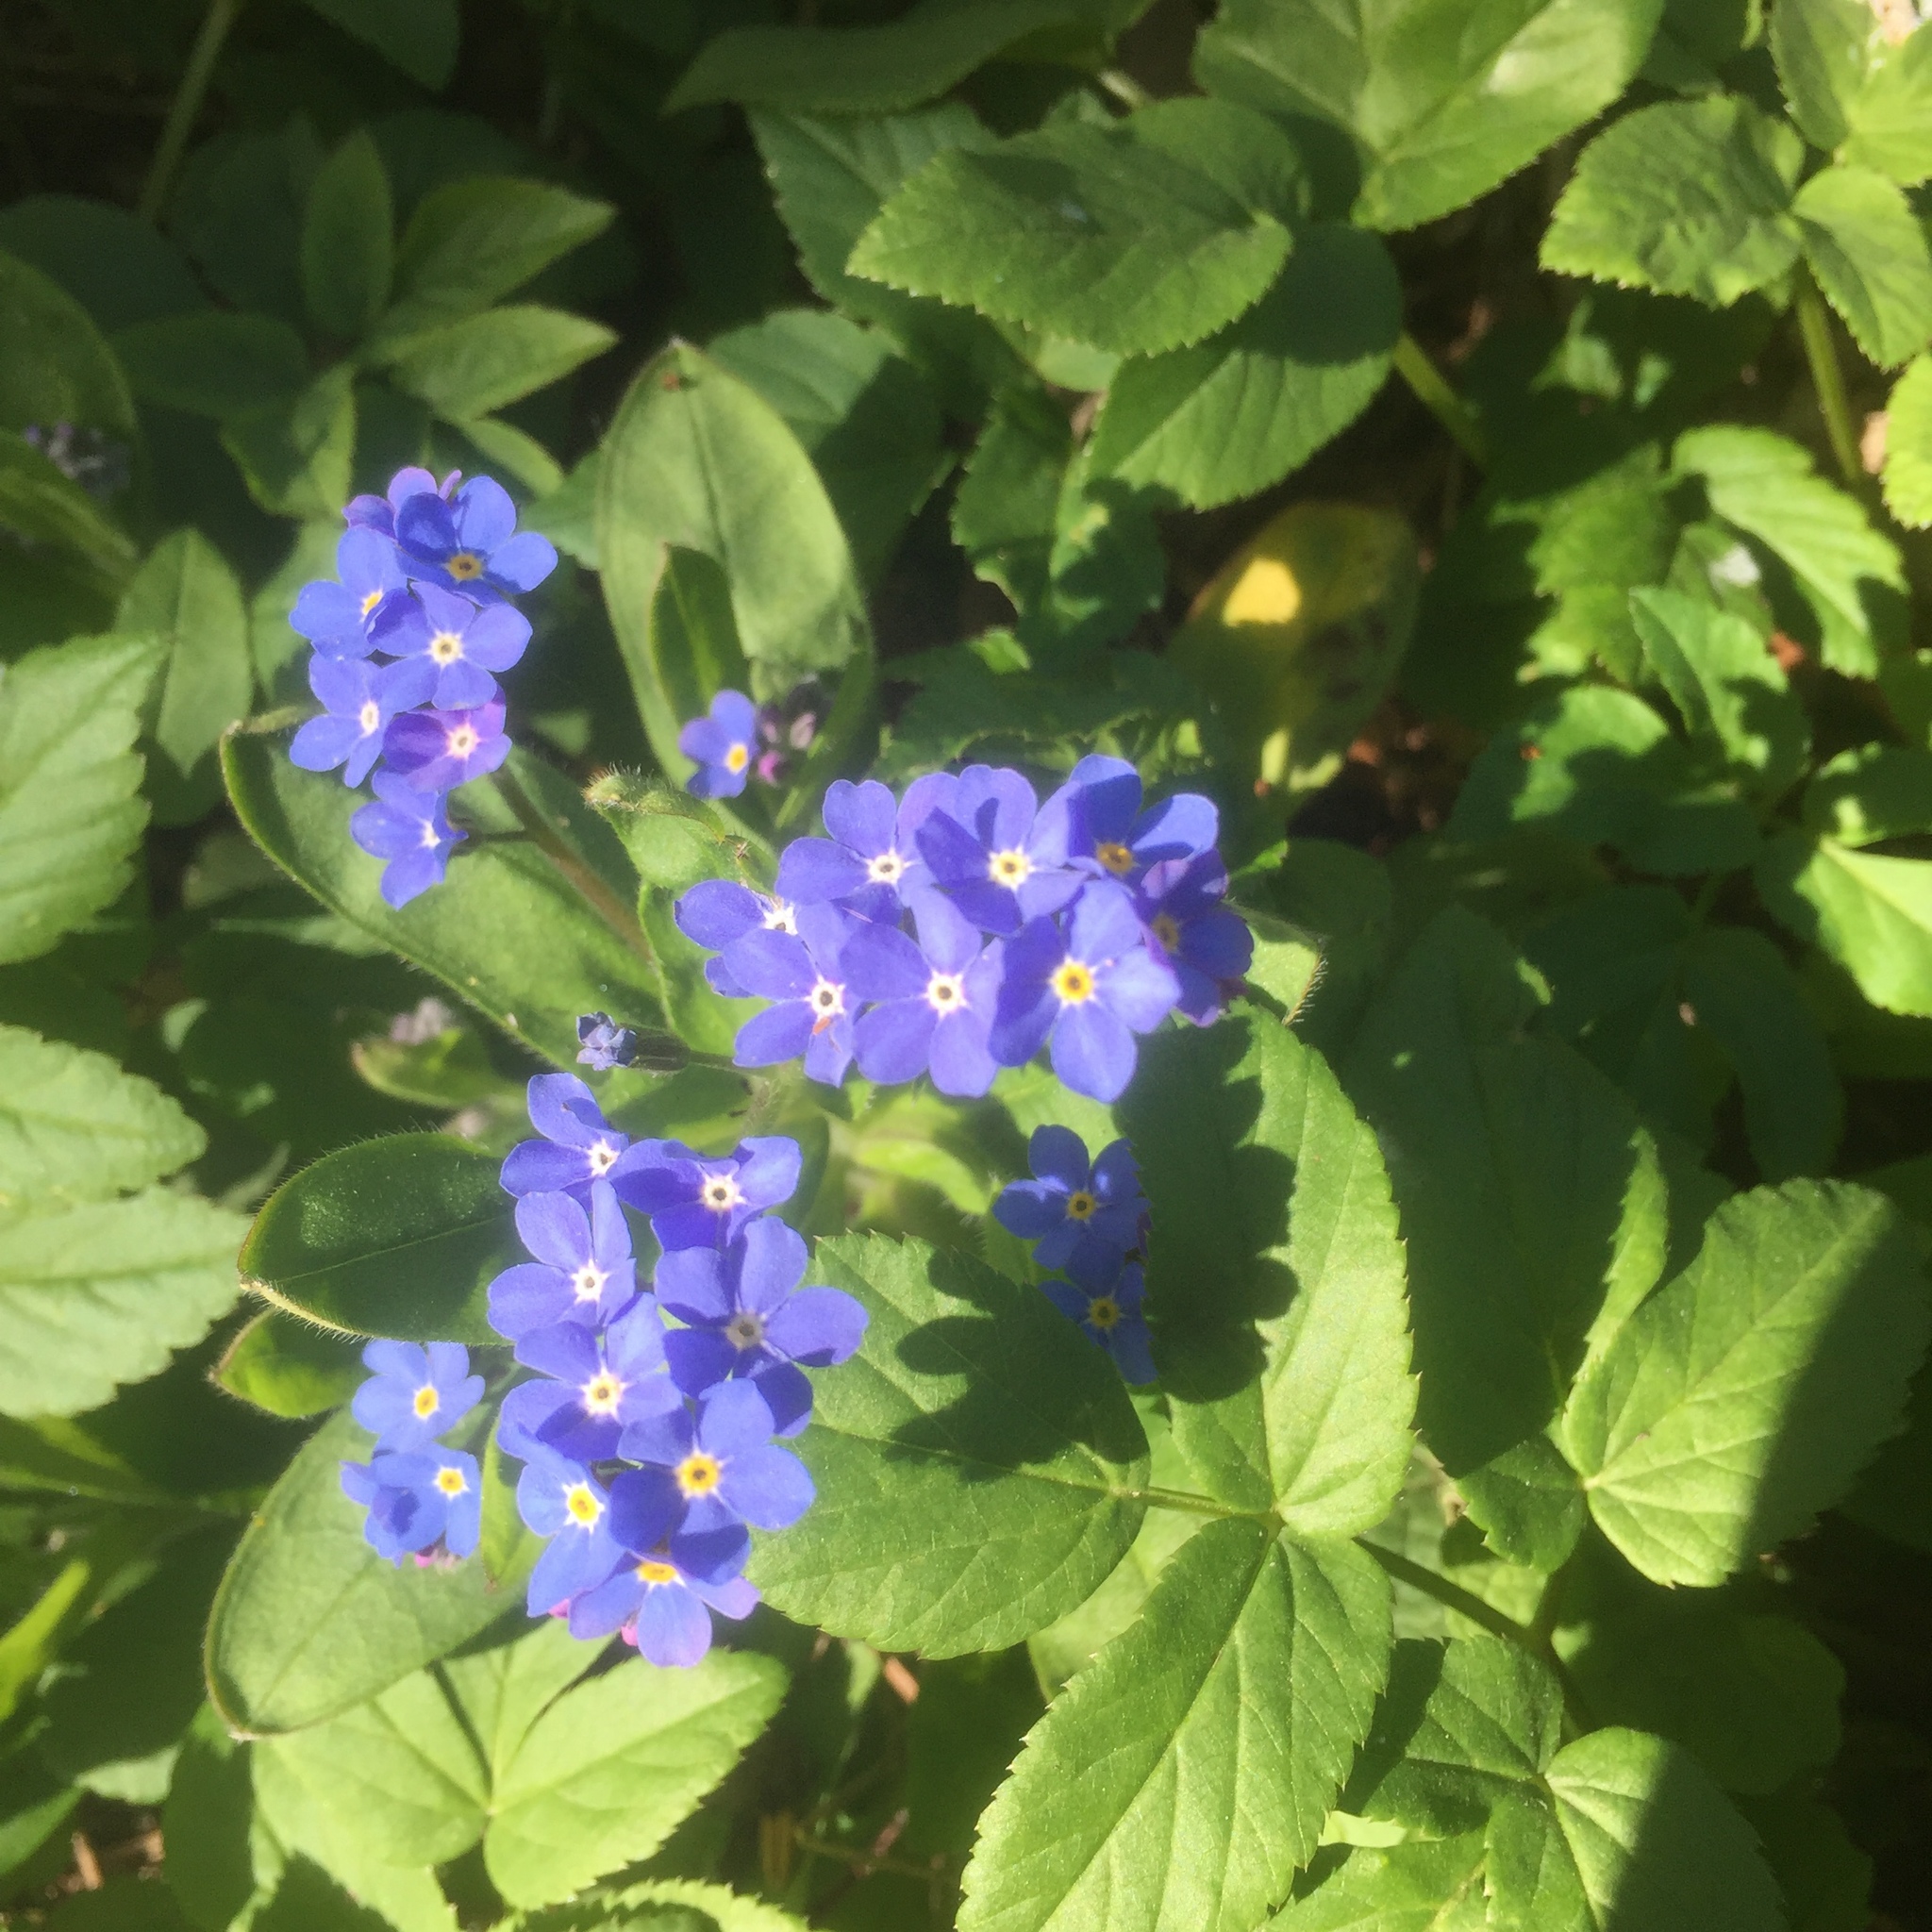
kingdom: Plantae
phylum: Tracheophyta
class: Magnoliopsida
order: Boraginales
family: Boraginaceae
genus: Myosotis
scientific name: Myosotis sylvatica
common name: Wood forget-me-not
